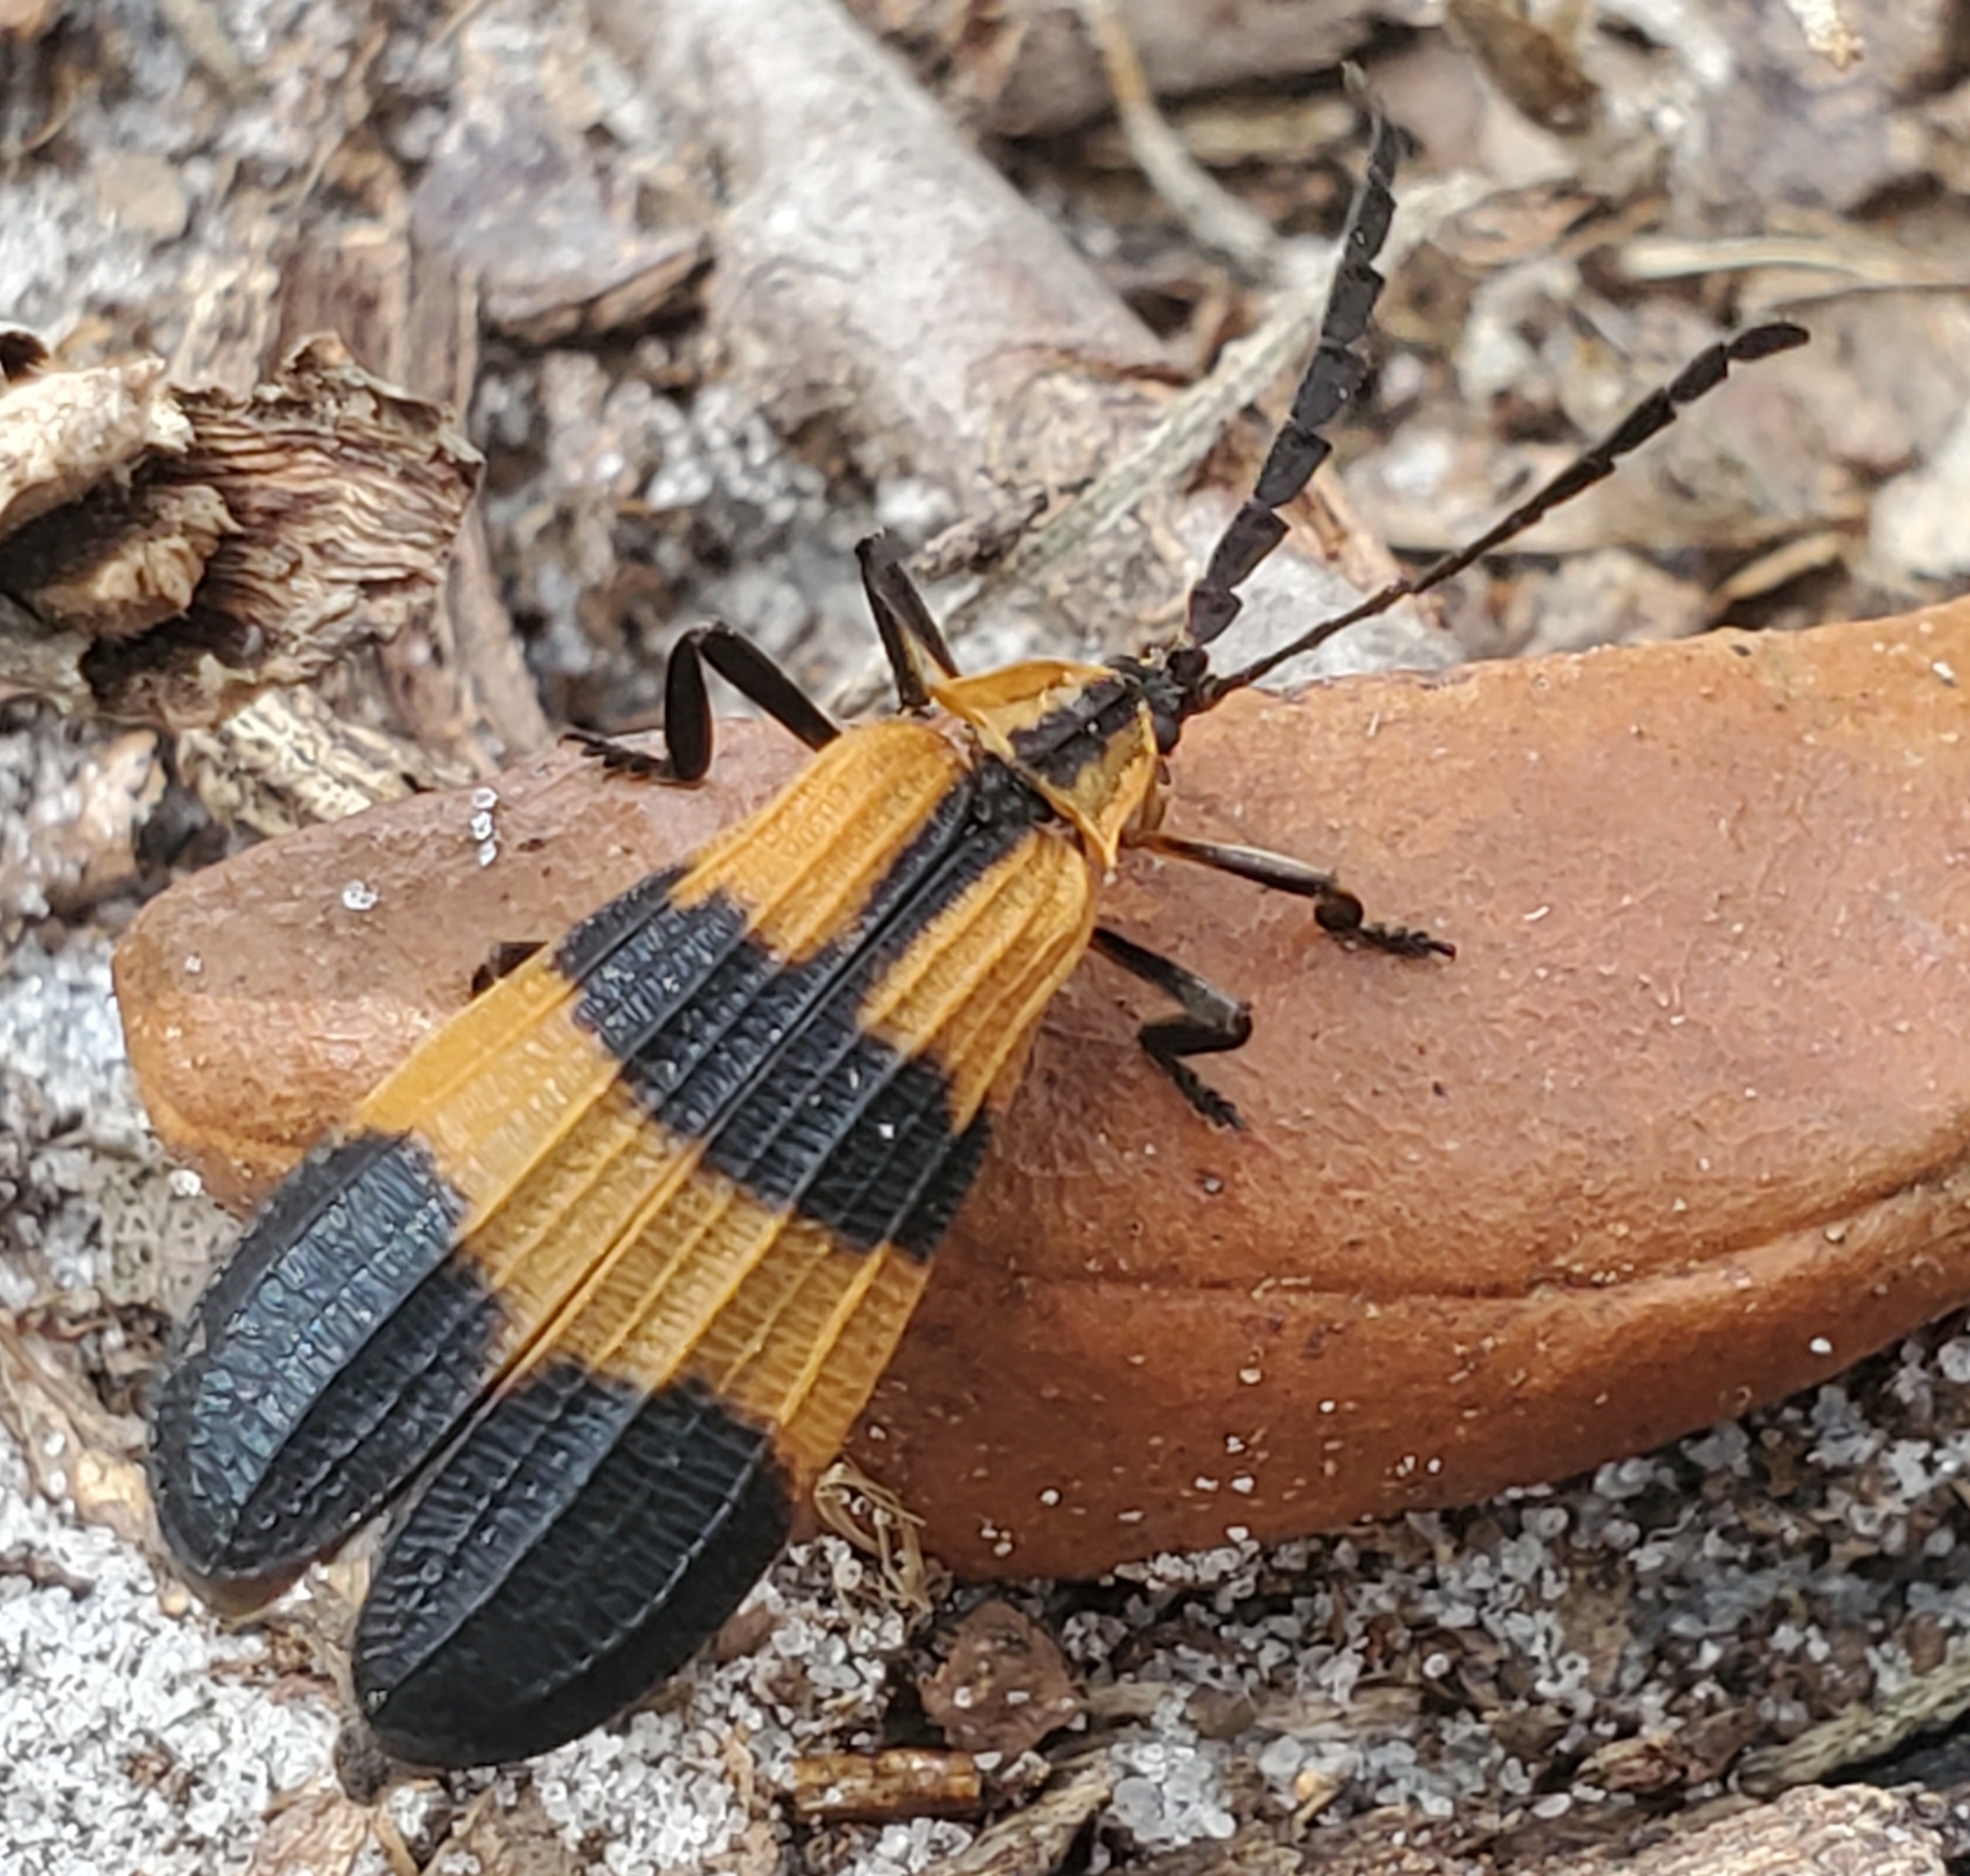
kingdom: Animalia
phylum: Arthropoda
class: Insecta
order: Coleoptera
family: Lycidae
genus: Calopteron
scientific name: Calopteron discrepans
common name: Banded net-winged beetle
